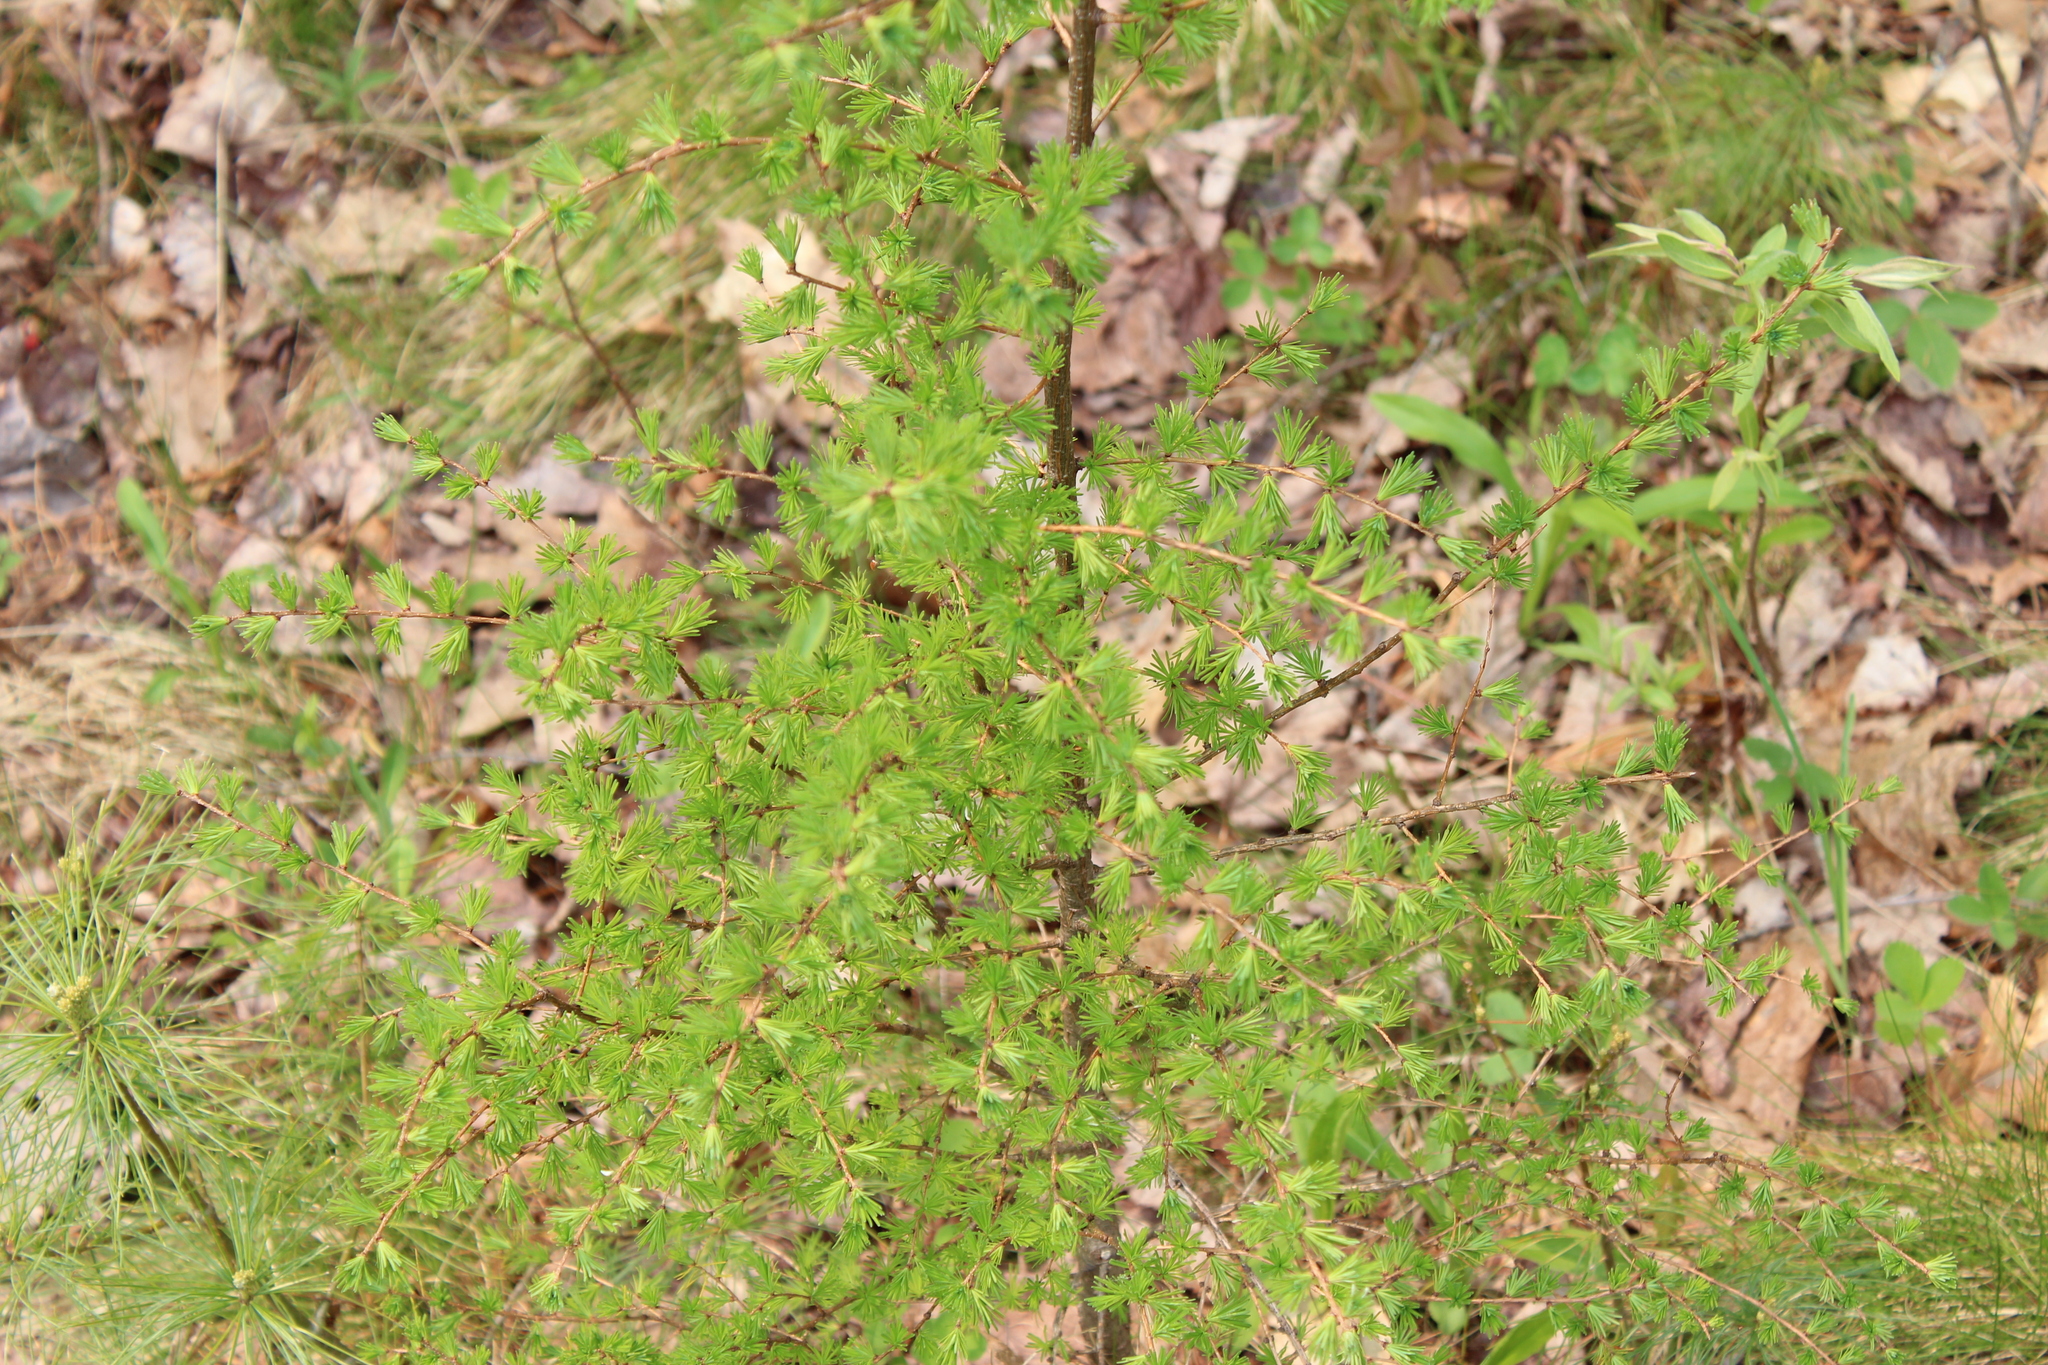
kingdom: Plantae
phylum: Tracheophyta
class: Pinopsida
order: Pinales
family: Pinaceae
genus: Larix
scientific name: Larix laricina
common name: American larch
